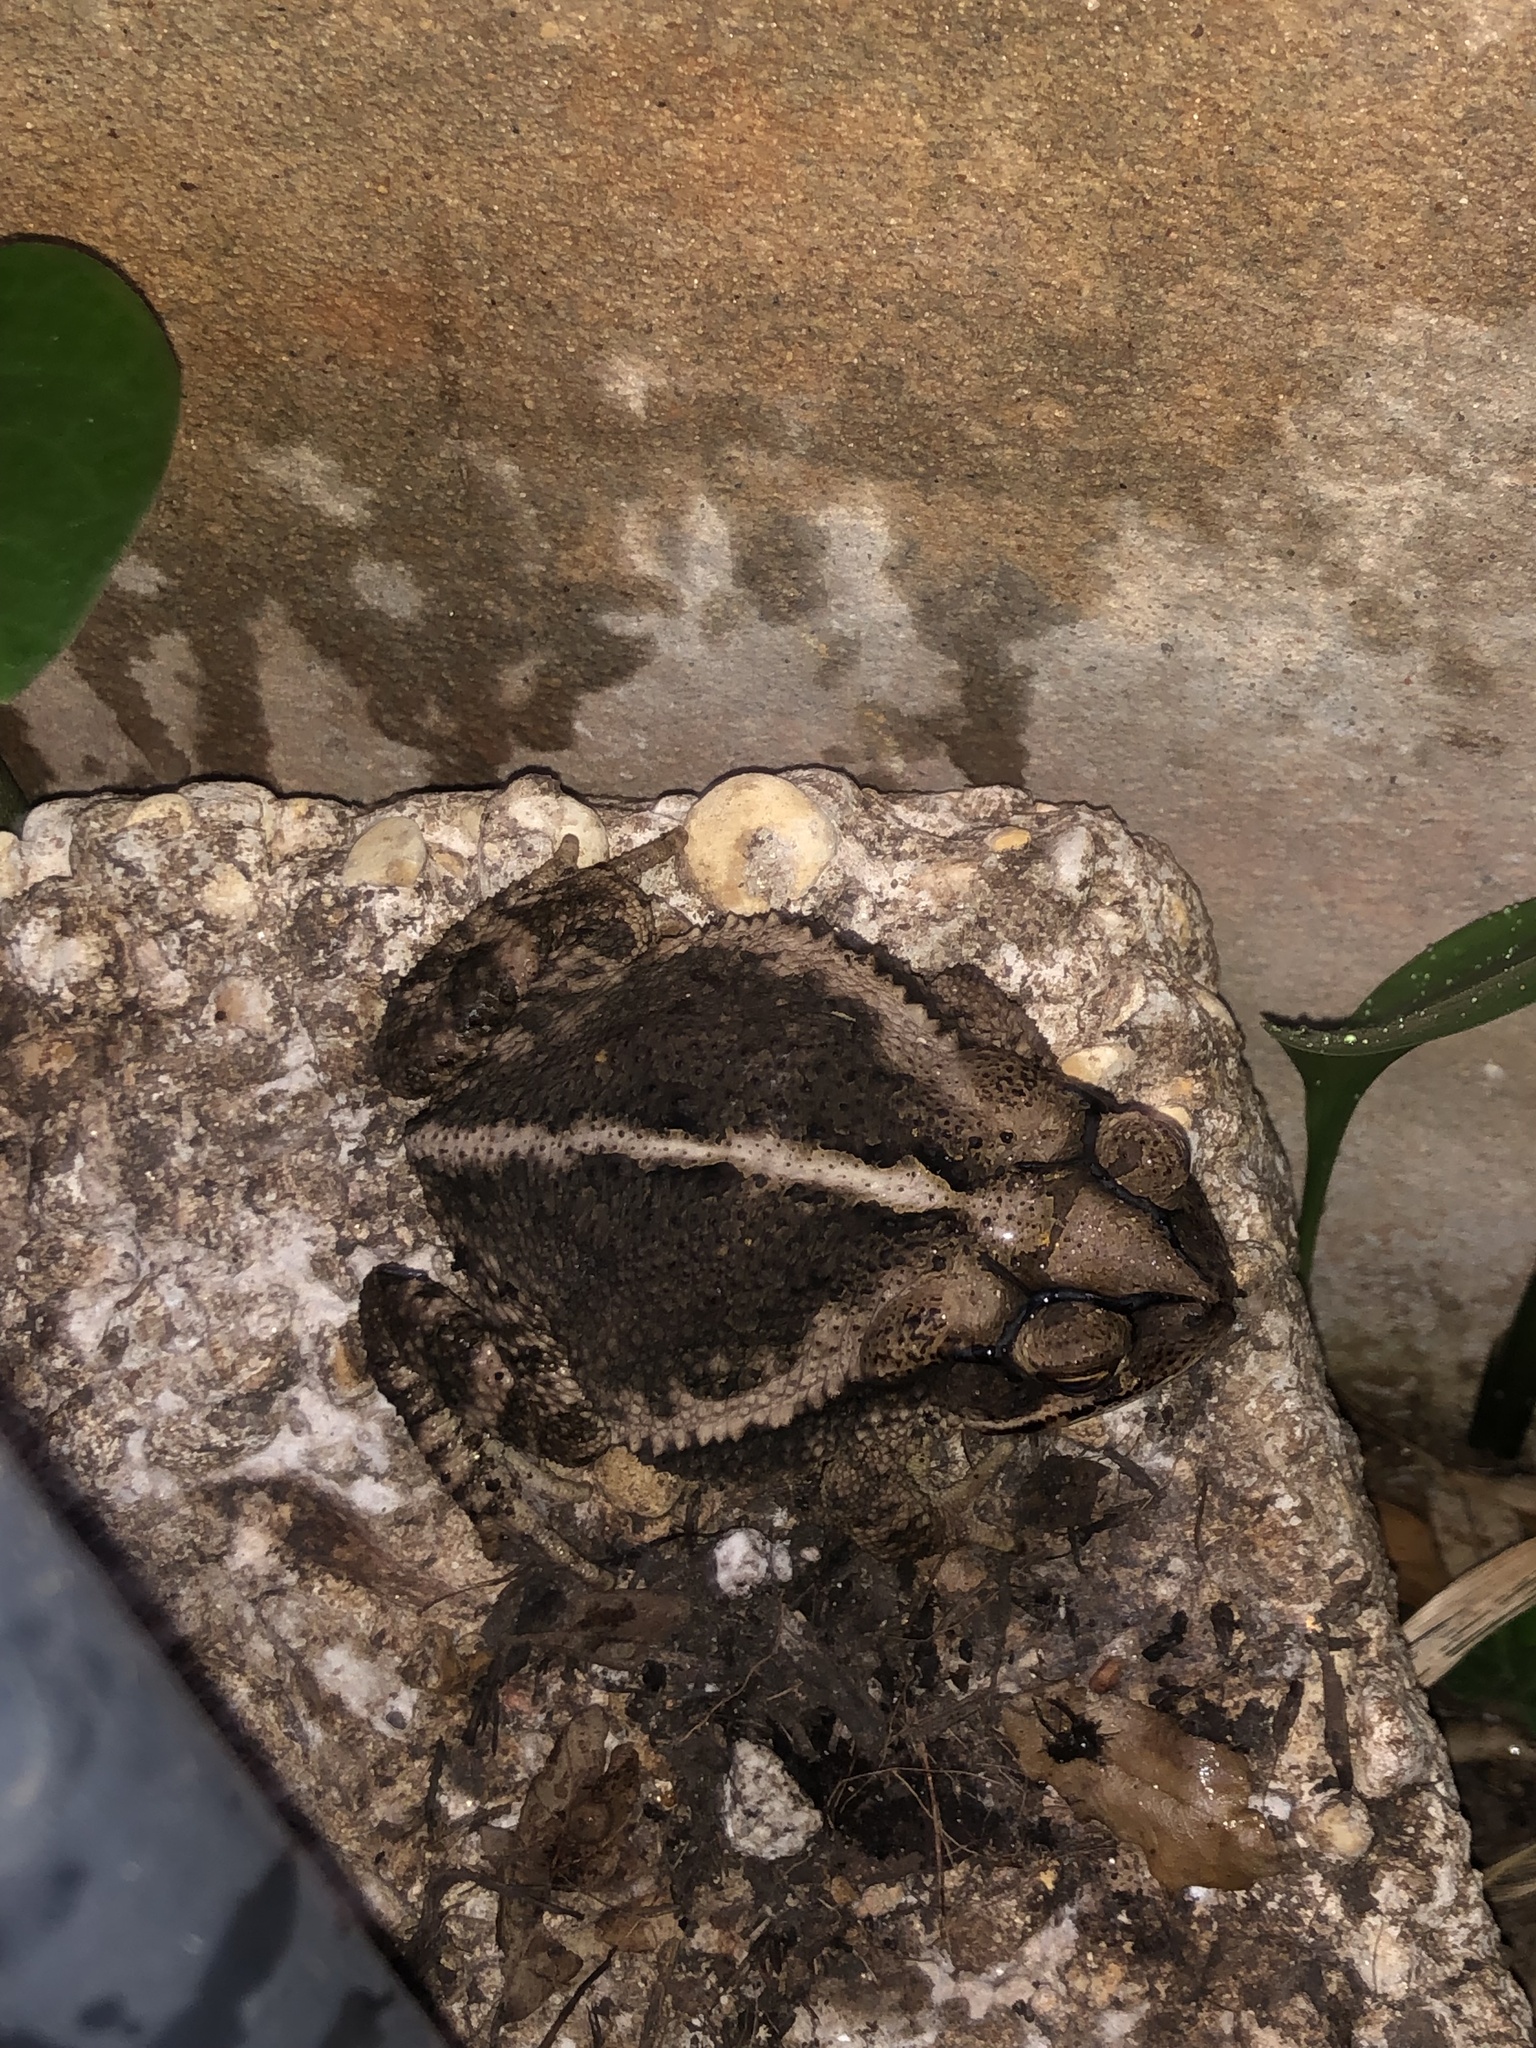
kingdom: Animalia
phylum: Chordata
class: Amphibia
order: Anura
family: Bufonidae
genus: Incilius
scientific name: Incilius nebulifer
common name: Gulf coast toad
